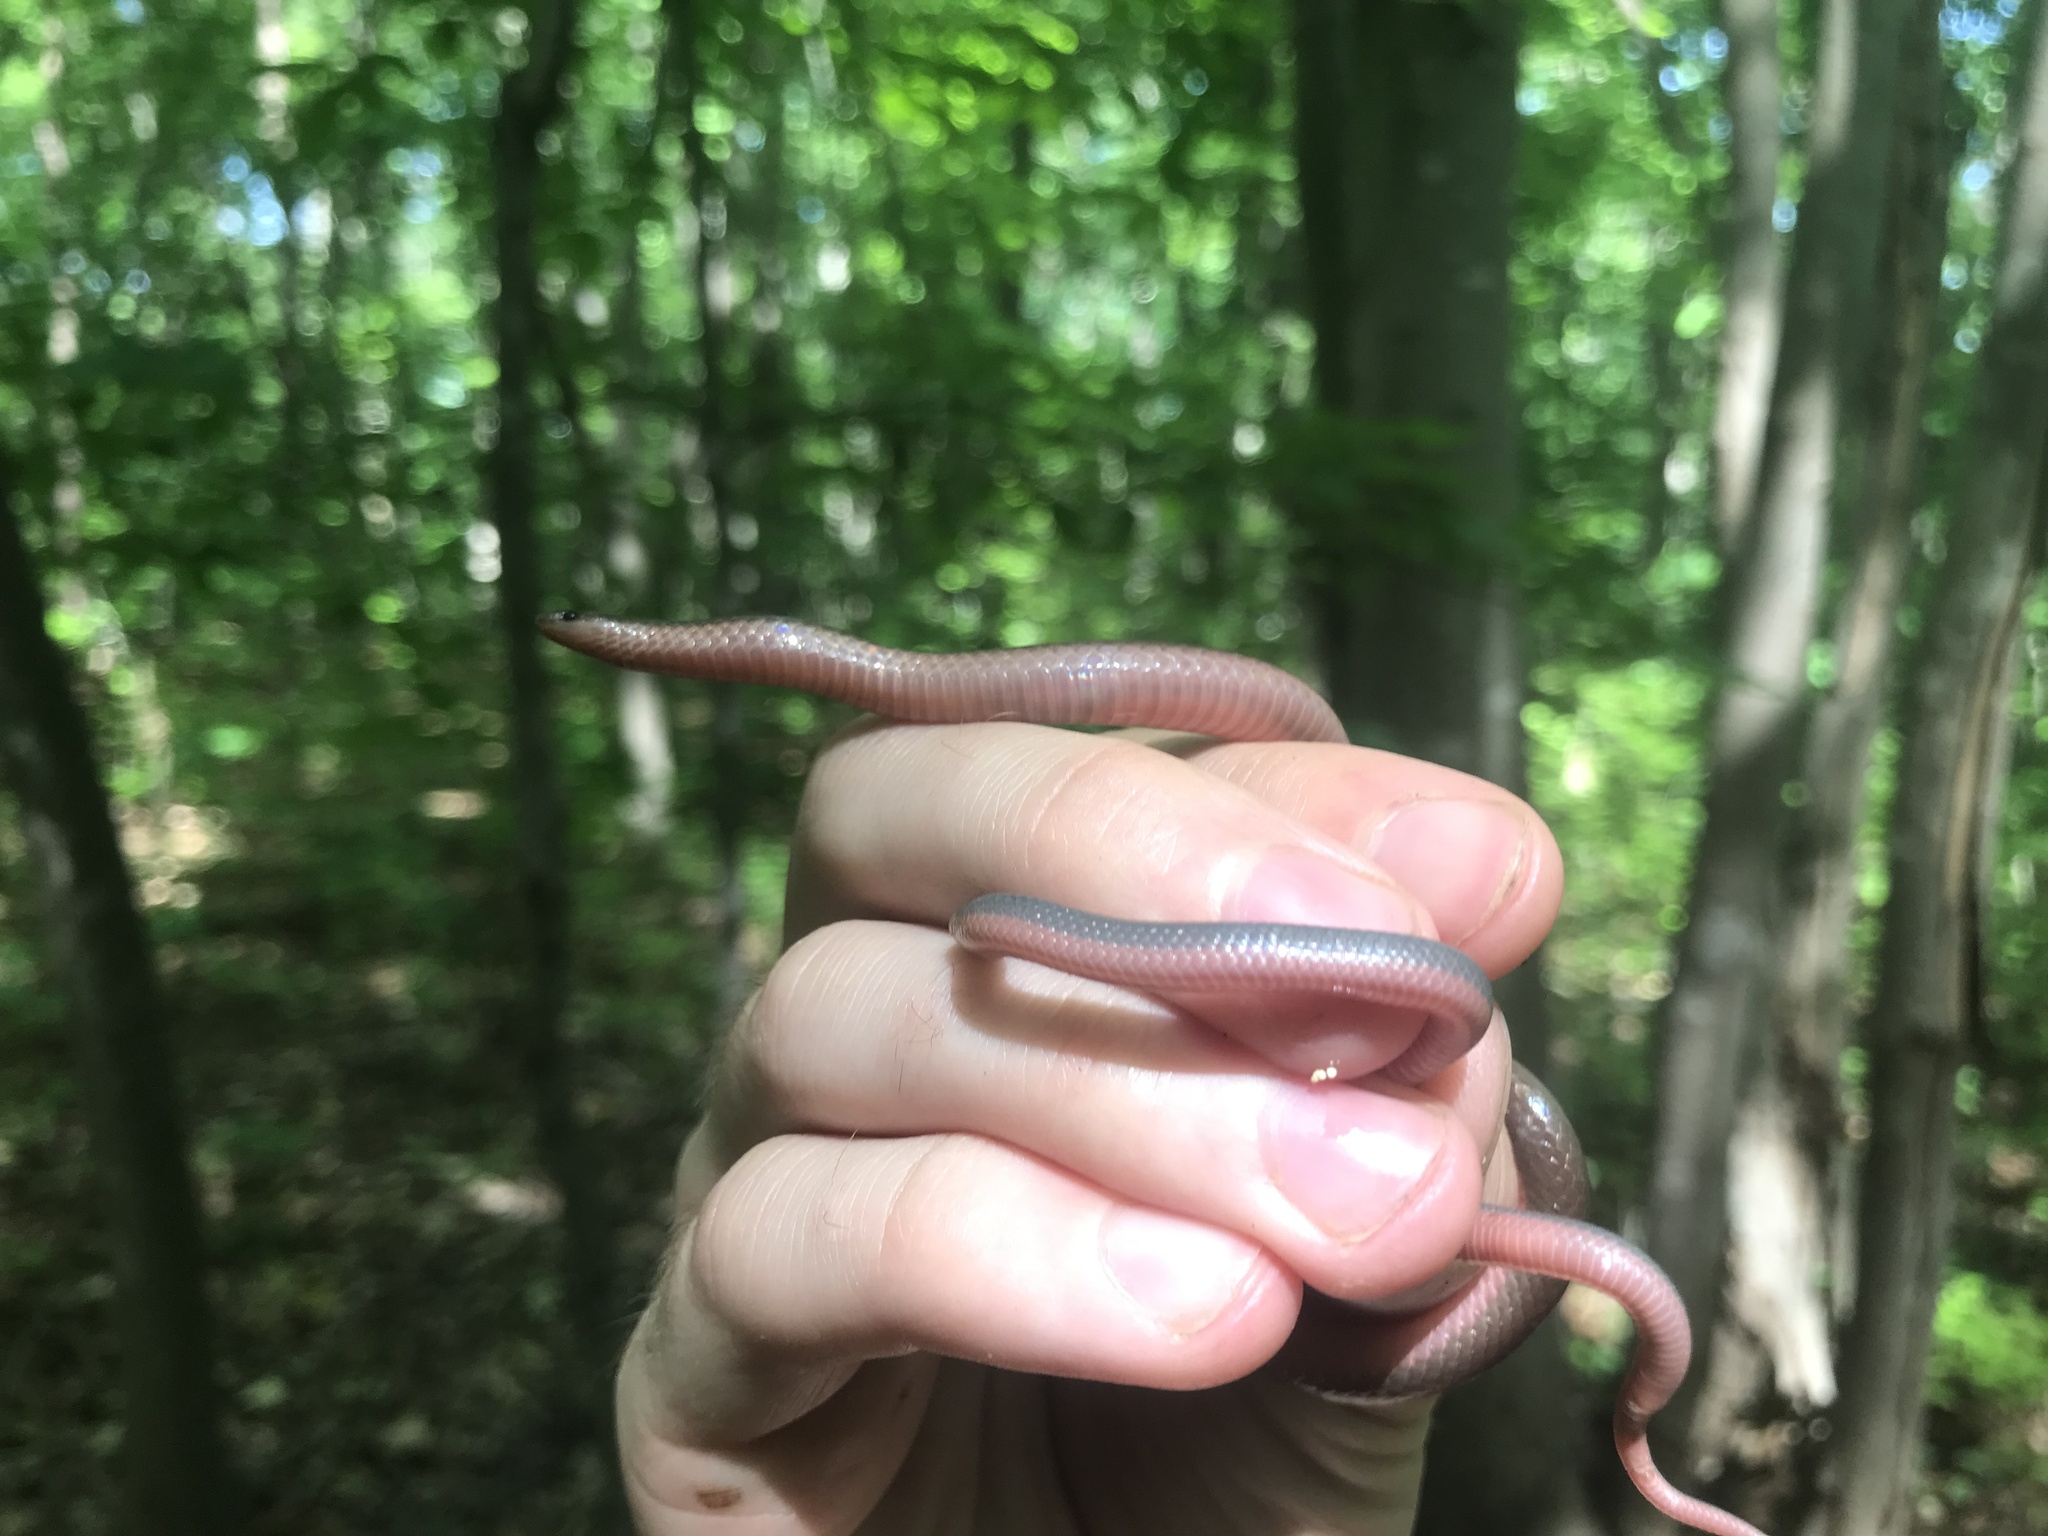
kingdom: Animalia
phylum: Chordata
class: Squamata
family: Colubridae
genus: Carphophis
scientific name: Carphophis amoenus
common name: Eastern worm snake
